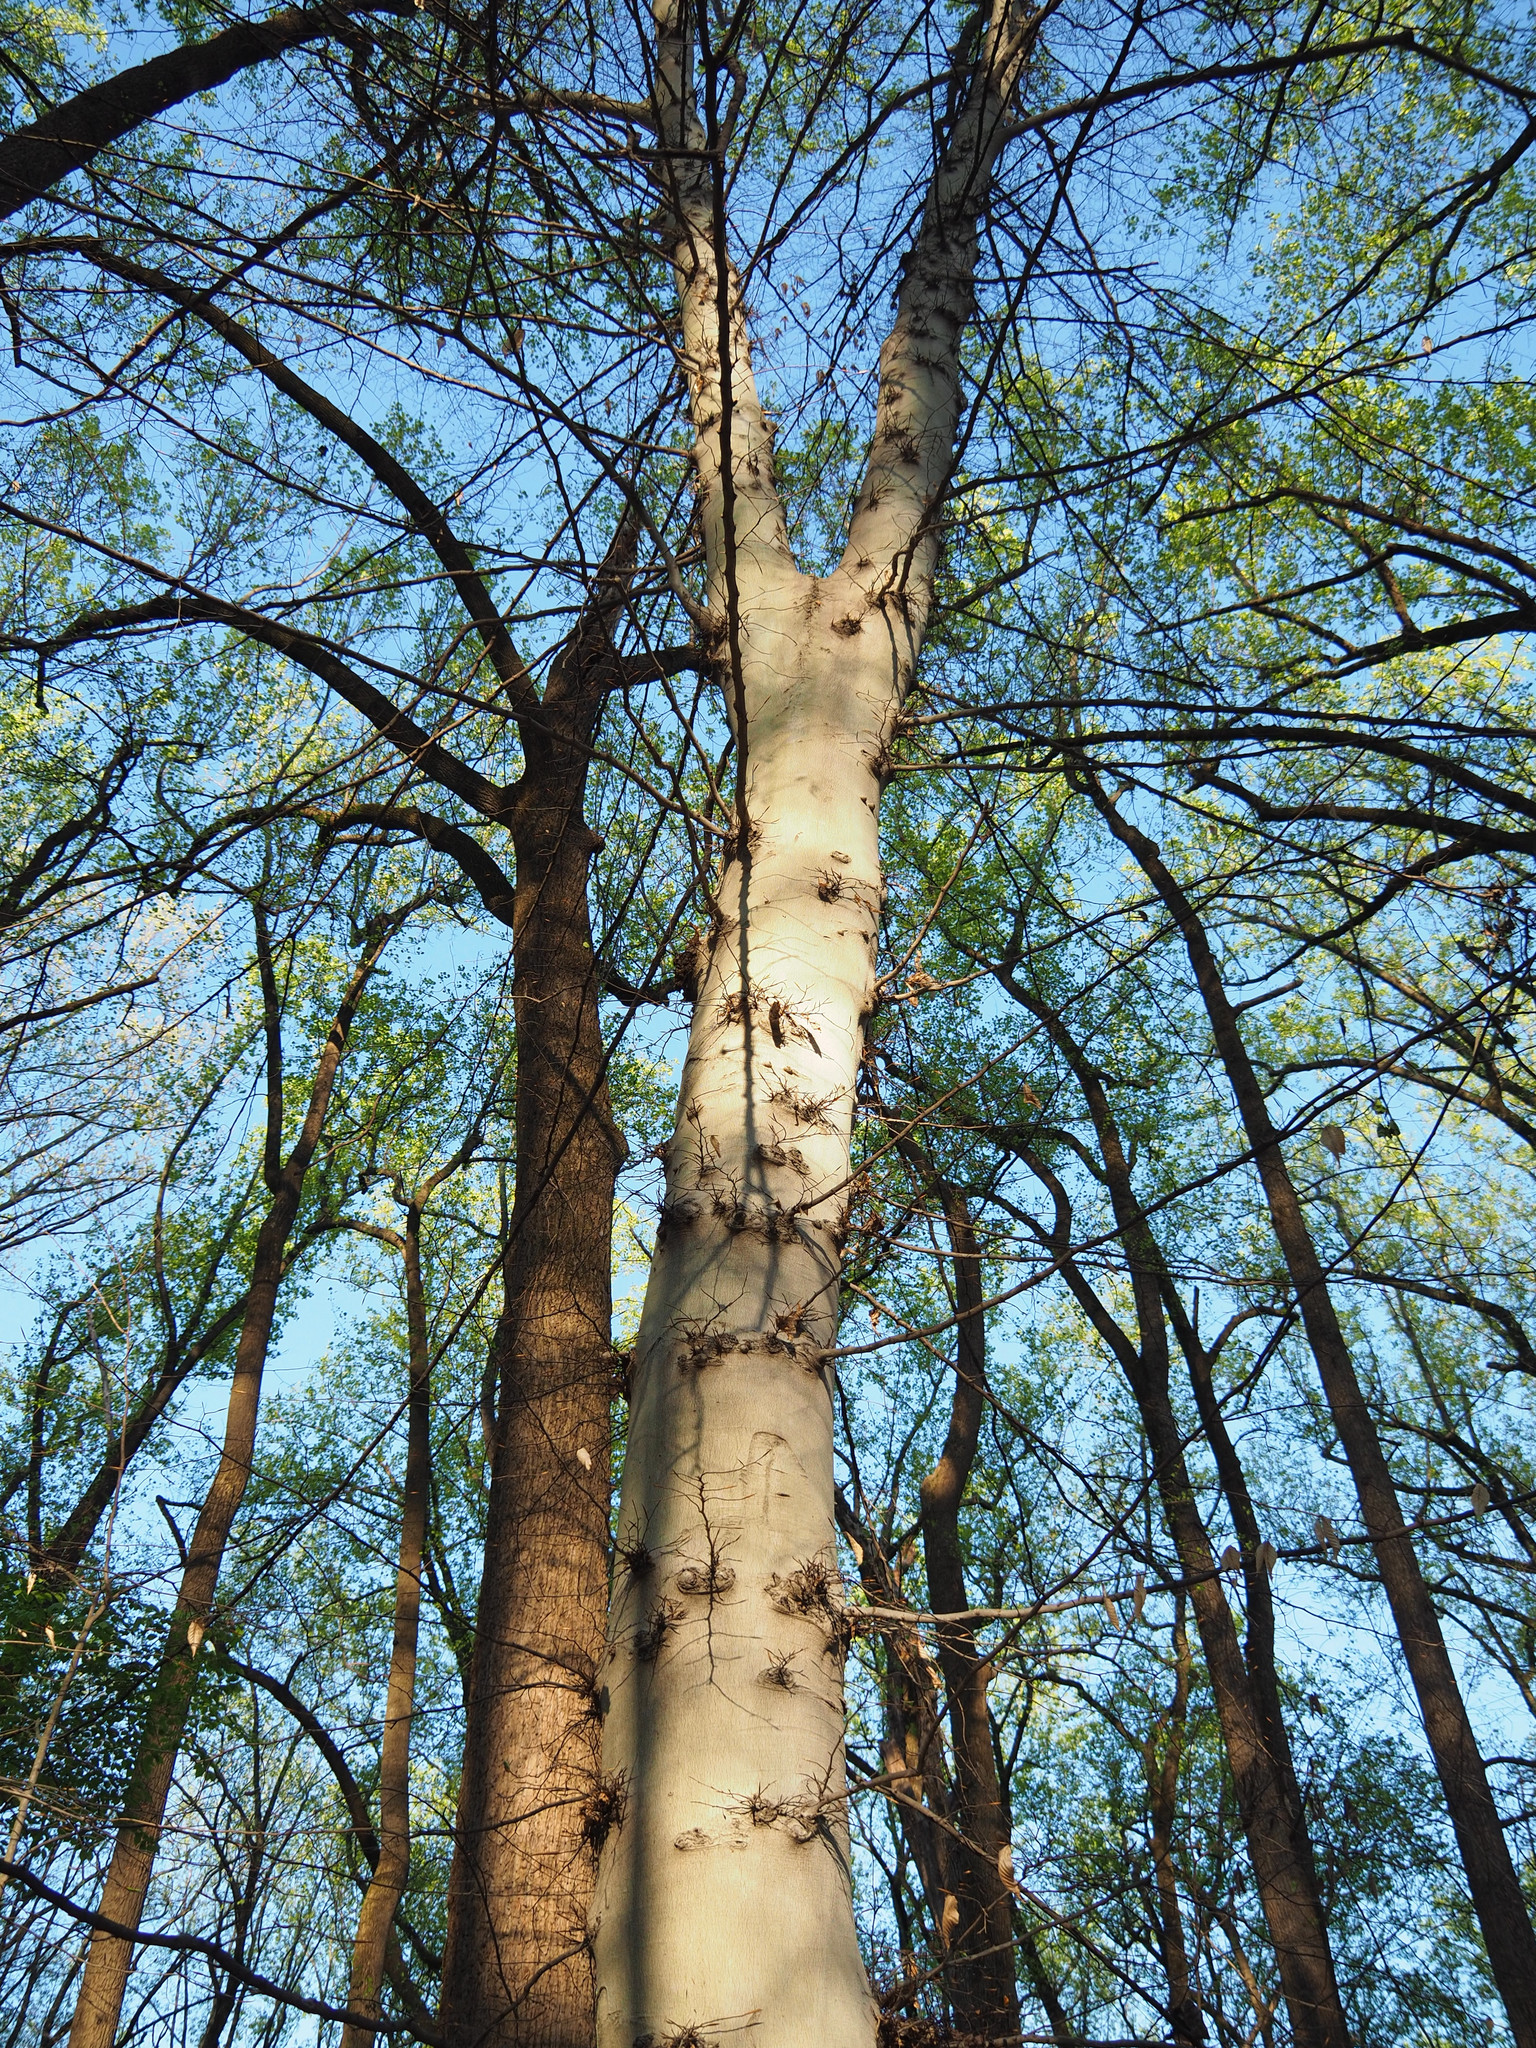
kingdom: Plantae
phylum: Tracheophyta
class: Magnoliopsida
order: Fagales
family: Fagaceae
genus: Fagus
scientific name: Fagus grandifolia
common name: American beech
